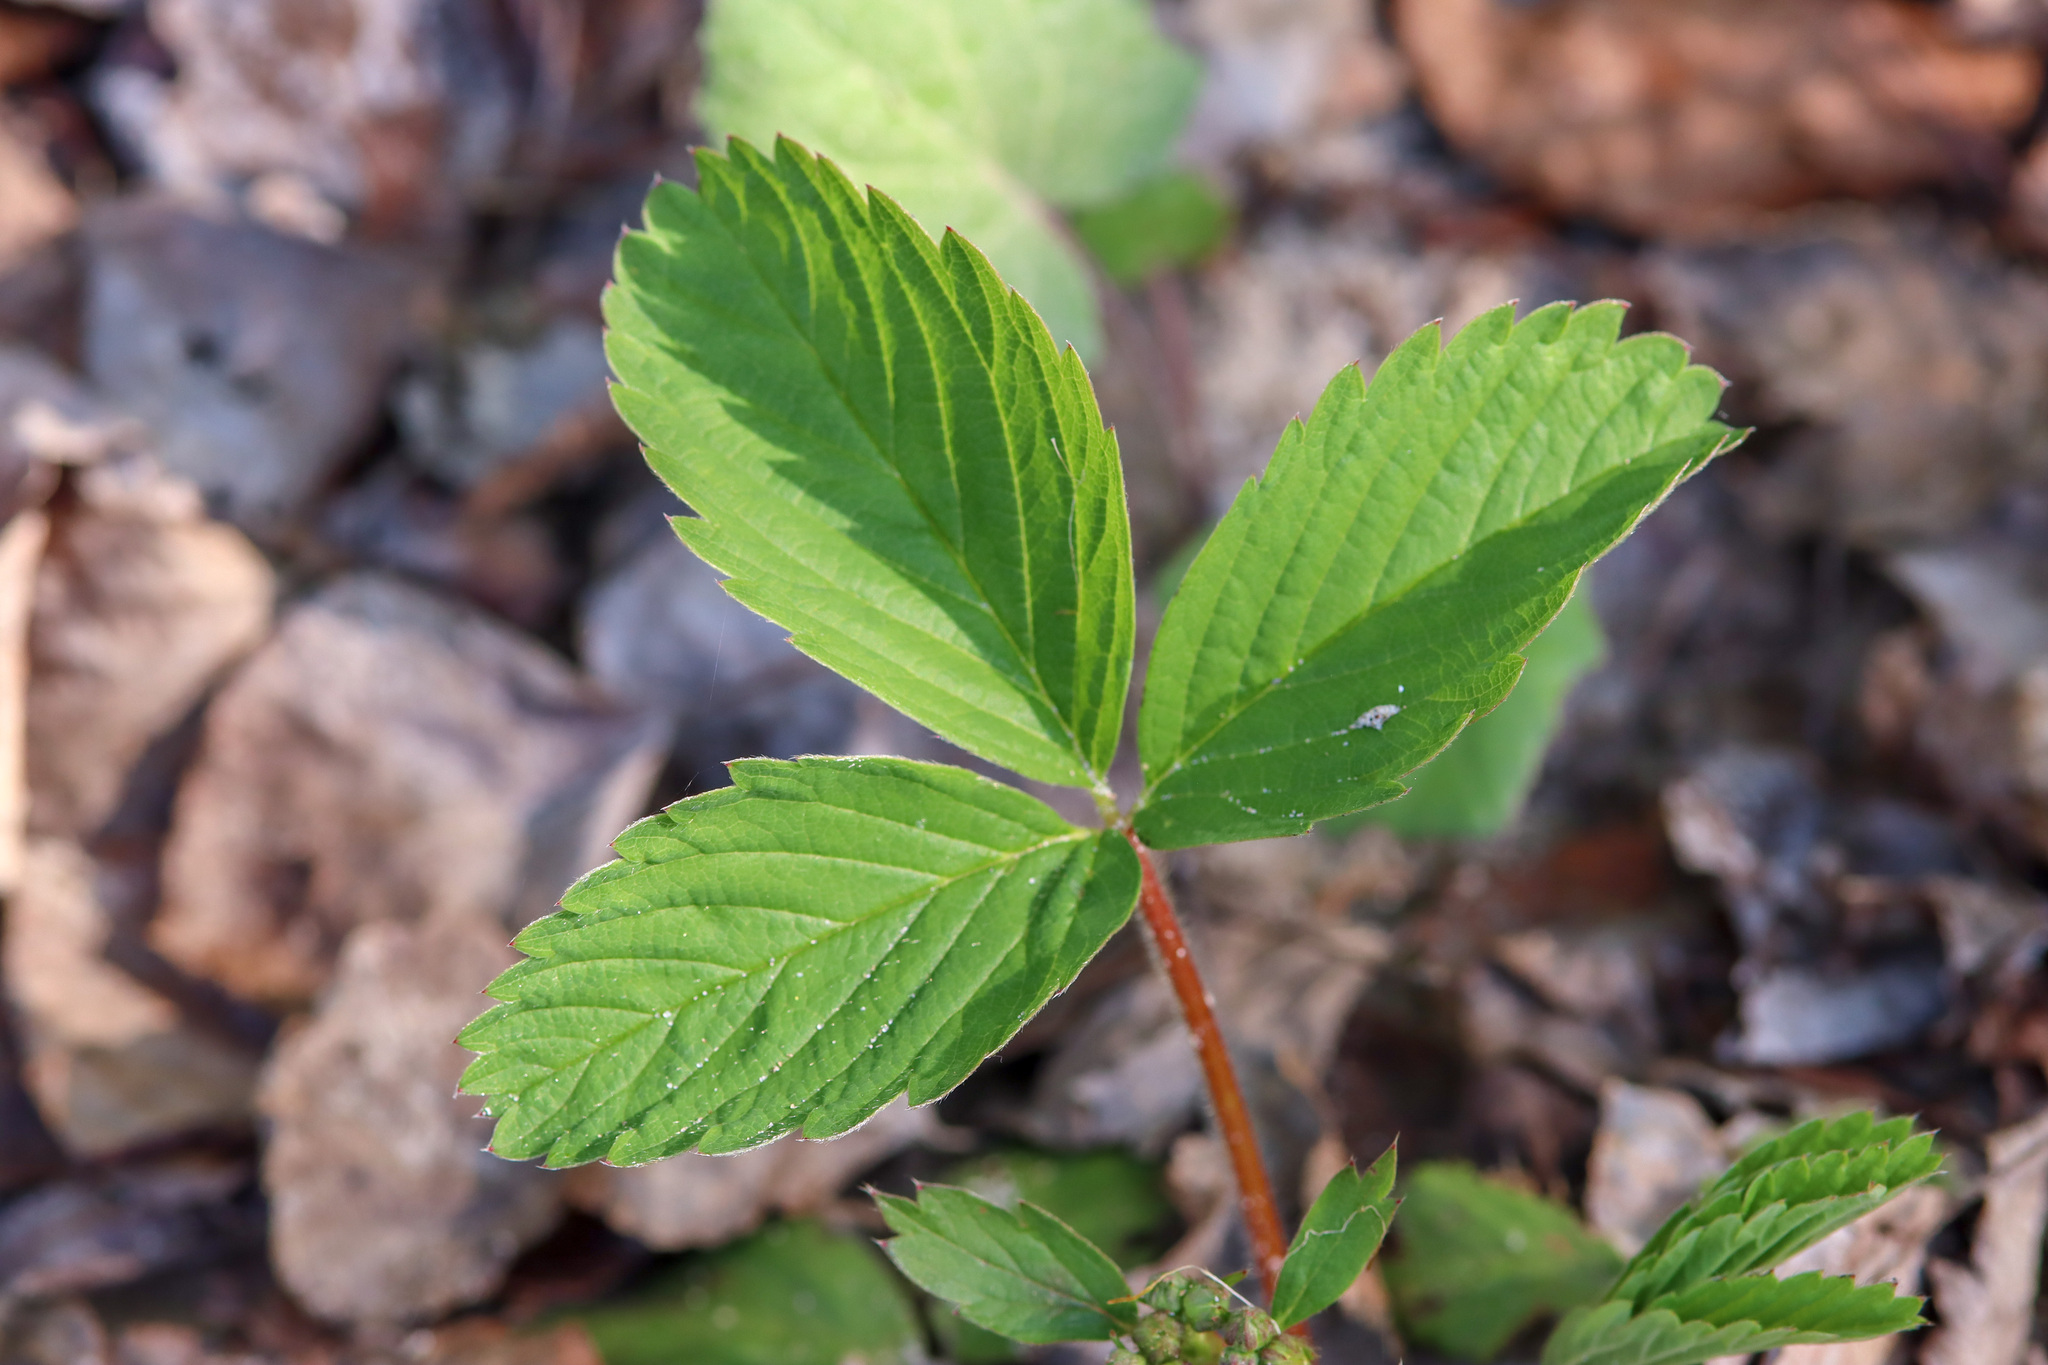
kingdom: Plantae
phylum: Tracheophyta
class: Magnoliopsida
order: Rosales
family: Rosaceae
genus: Fragaria
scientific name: Fragaria virginiana
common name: Thickleaved wild strawberry
